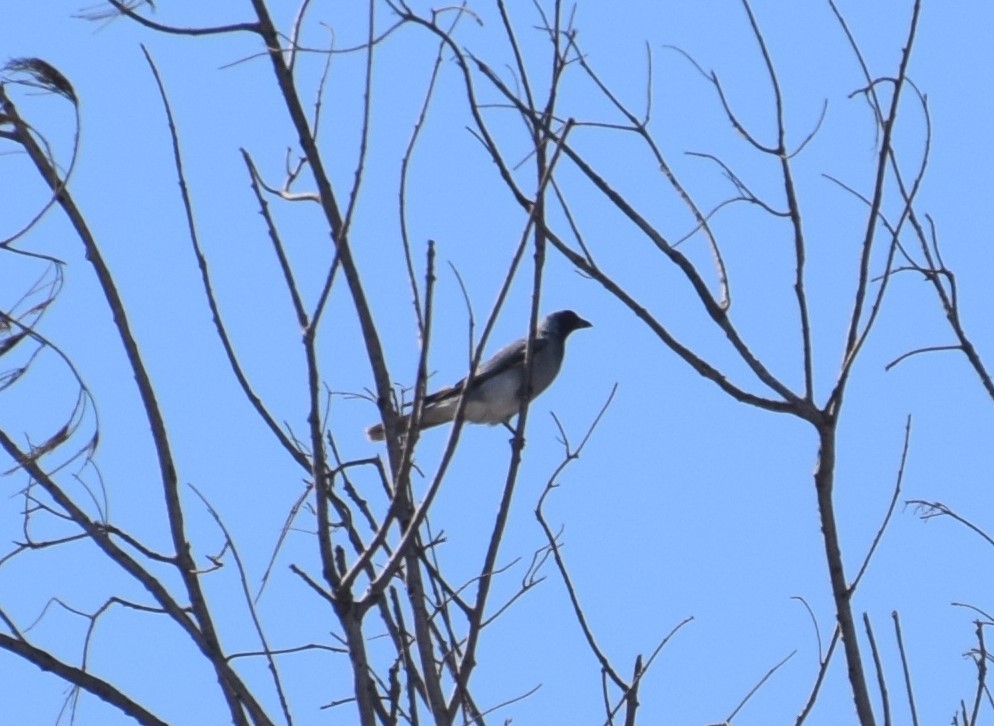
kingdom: Animalia
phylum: Chordata
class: Aves
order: Passeriformes
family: Campephagidae
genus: Coracina
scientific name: Coracina novaehollandiae
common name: Black-faced cuckooshrike
